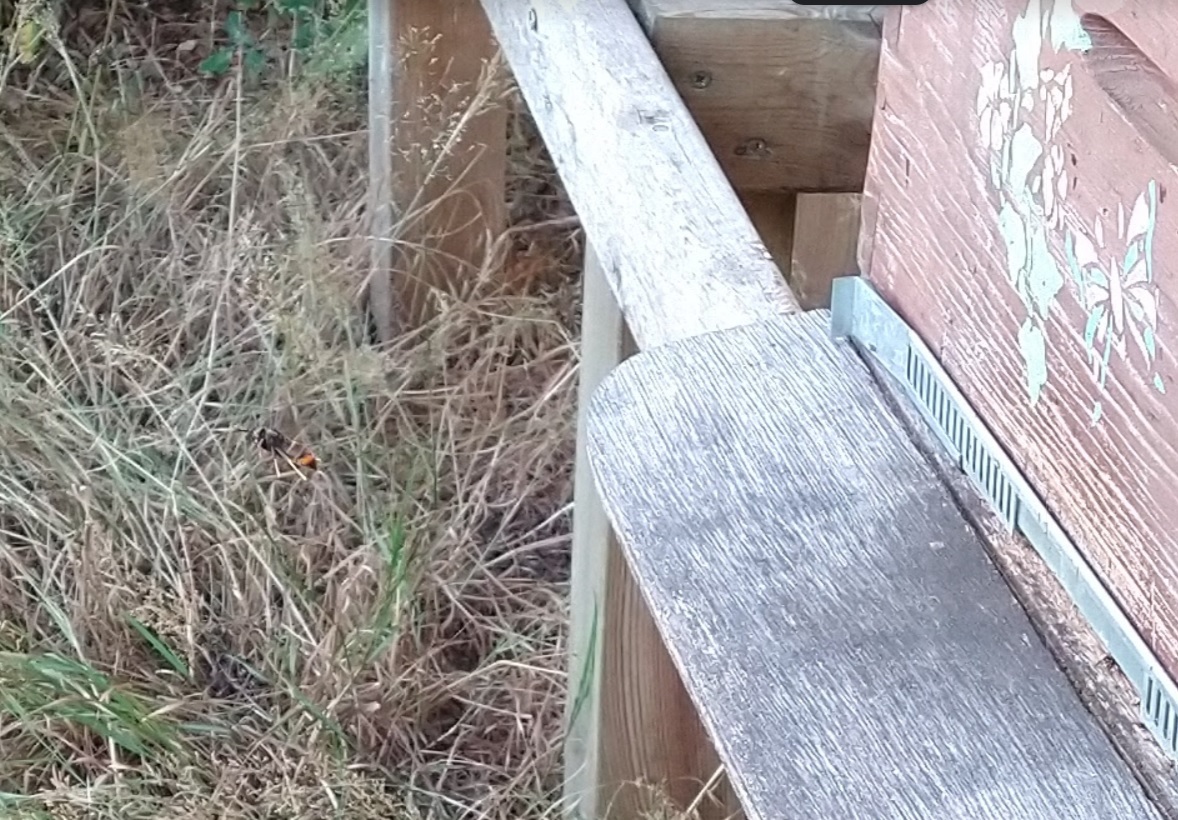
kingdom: Animalia
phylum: Arthropoda
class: Insecta
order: Hymenoptera
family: Vespidae
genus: Vespa
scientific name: Vespa velutina
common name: Asian hornet
